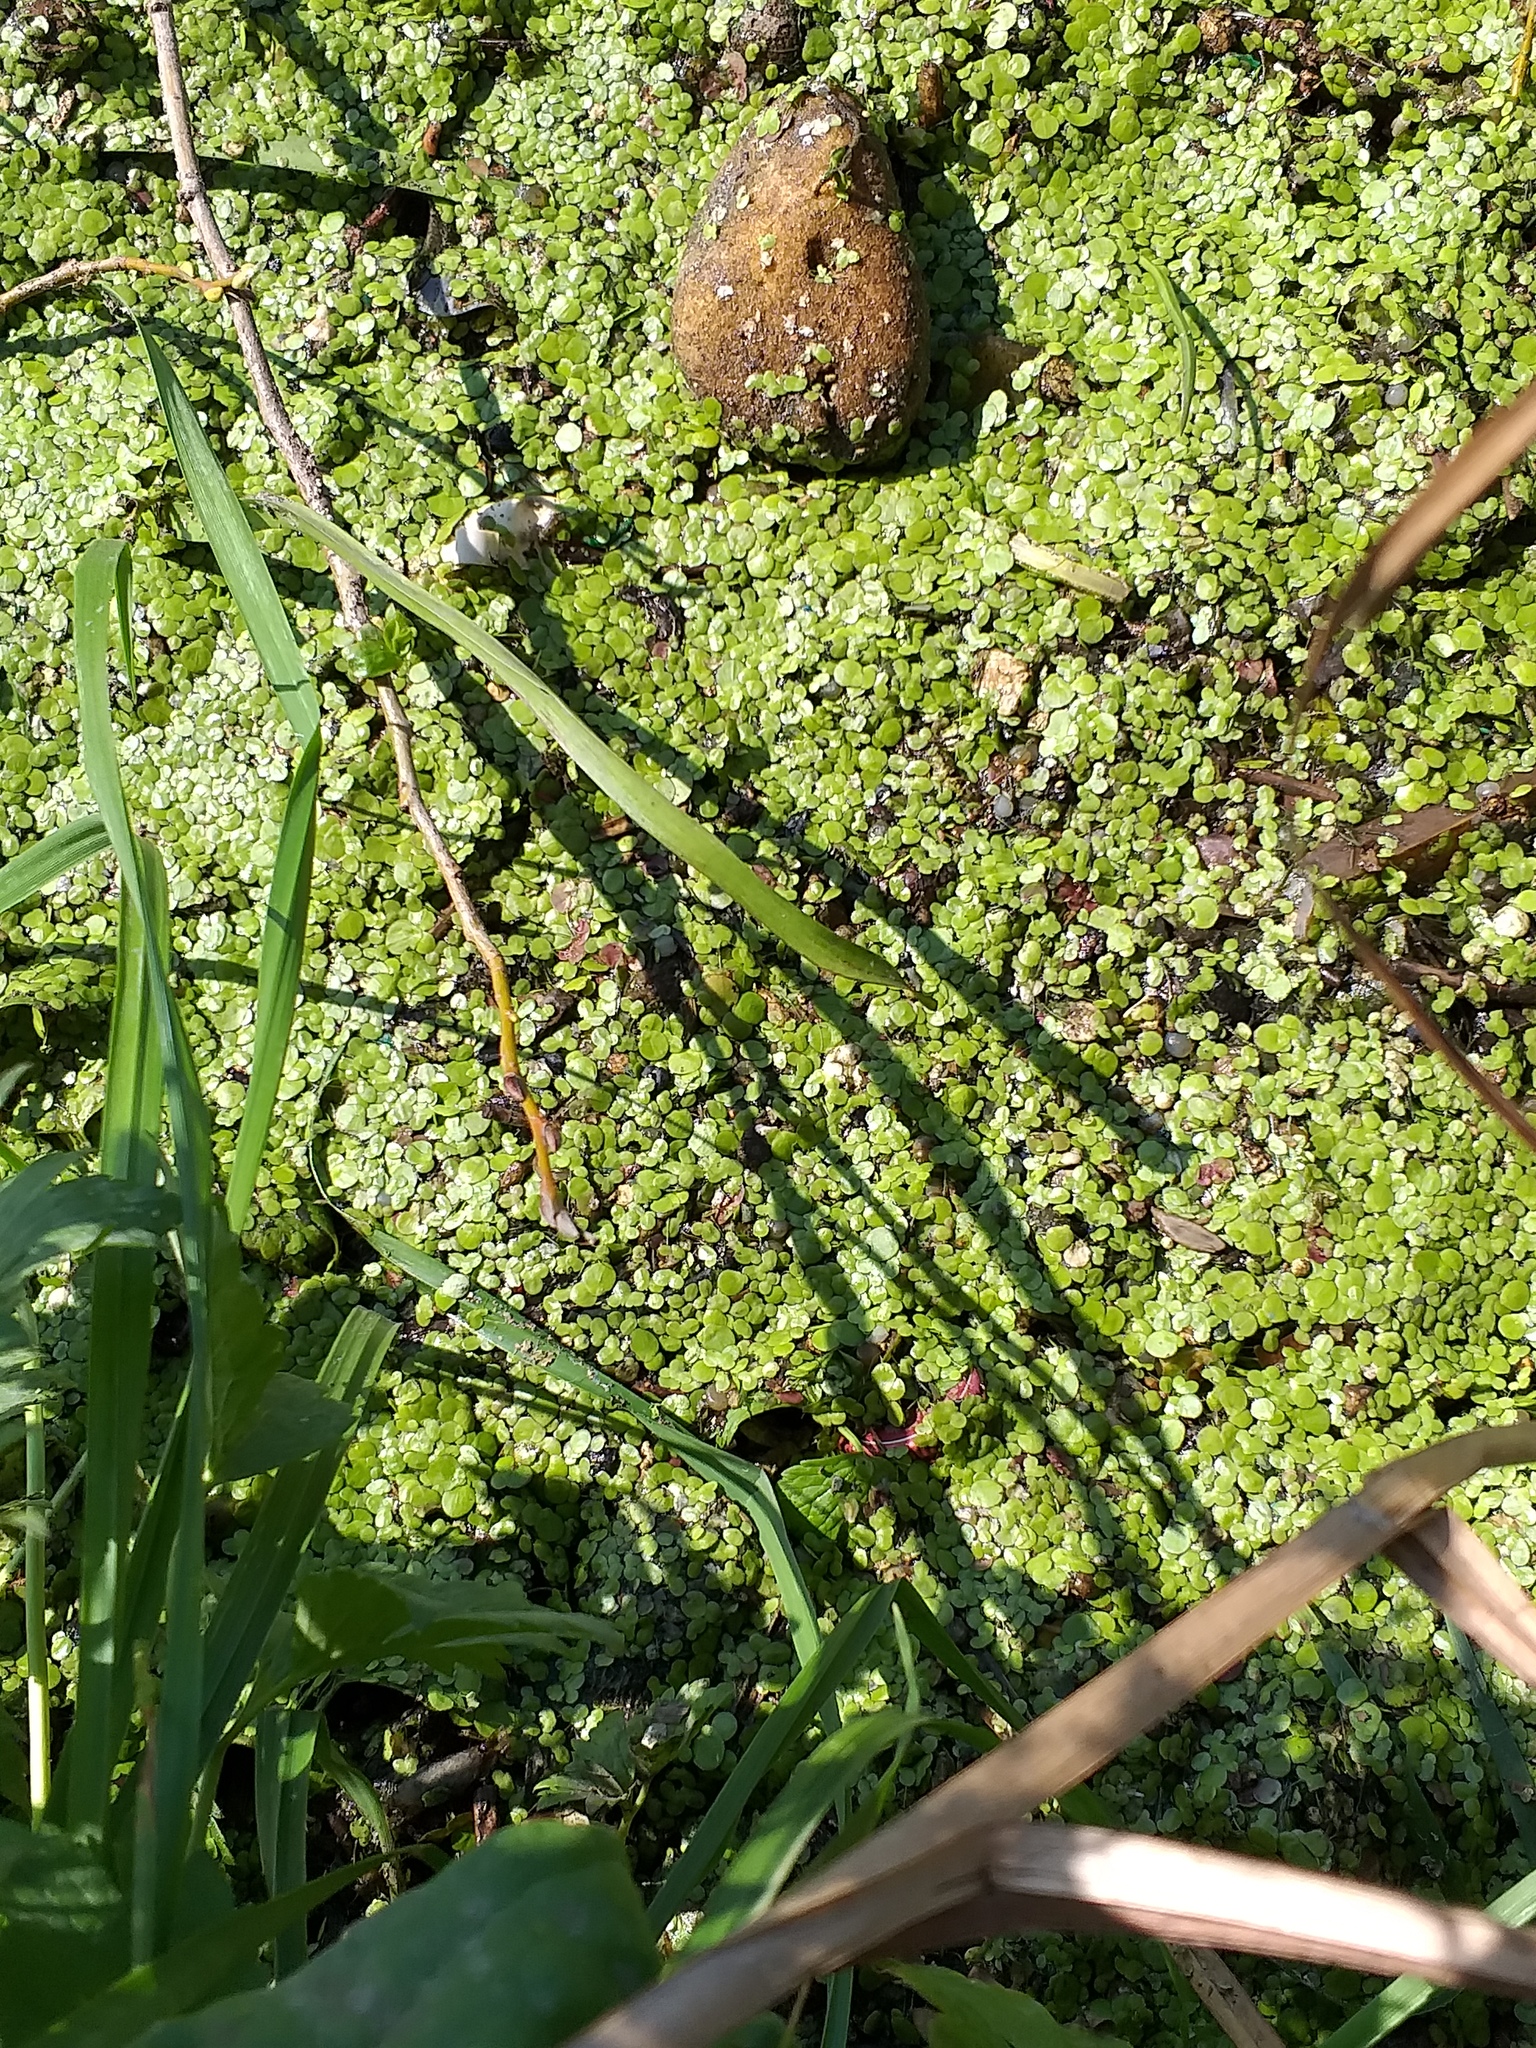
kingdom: Plantae
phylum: Tracheophyta
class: Liliopsida
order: Alismatales
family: Araceae
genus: Lemna
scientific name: Lemna minor
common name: Common duckweed
